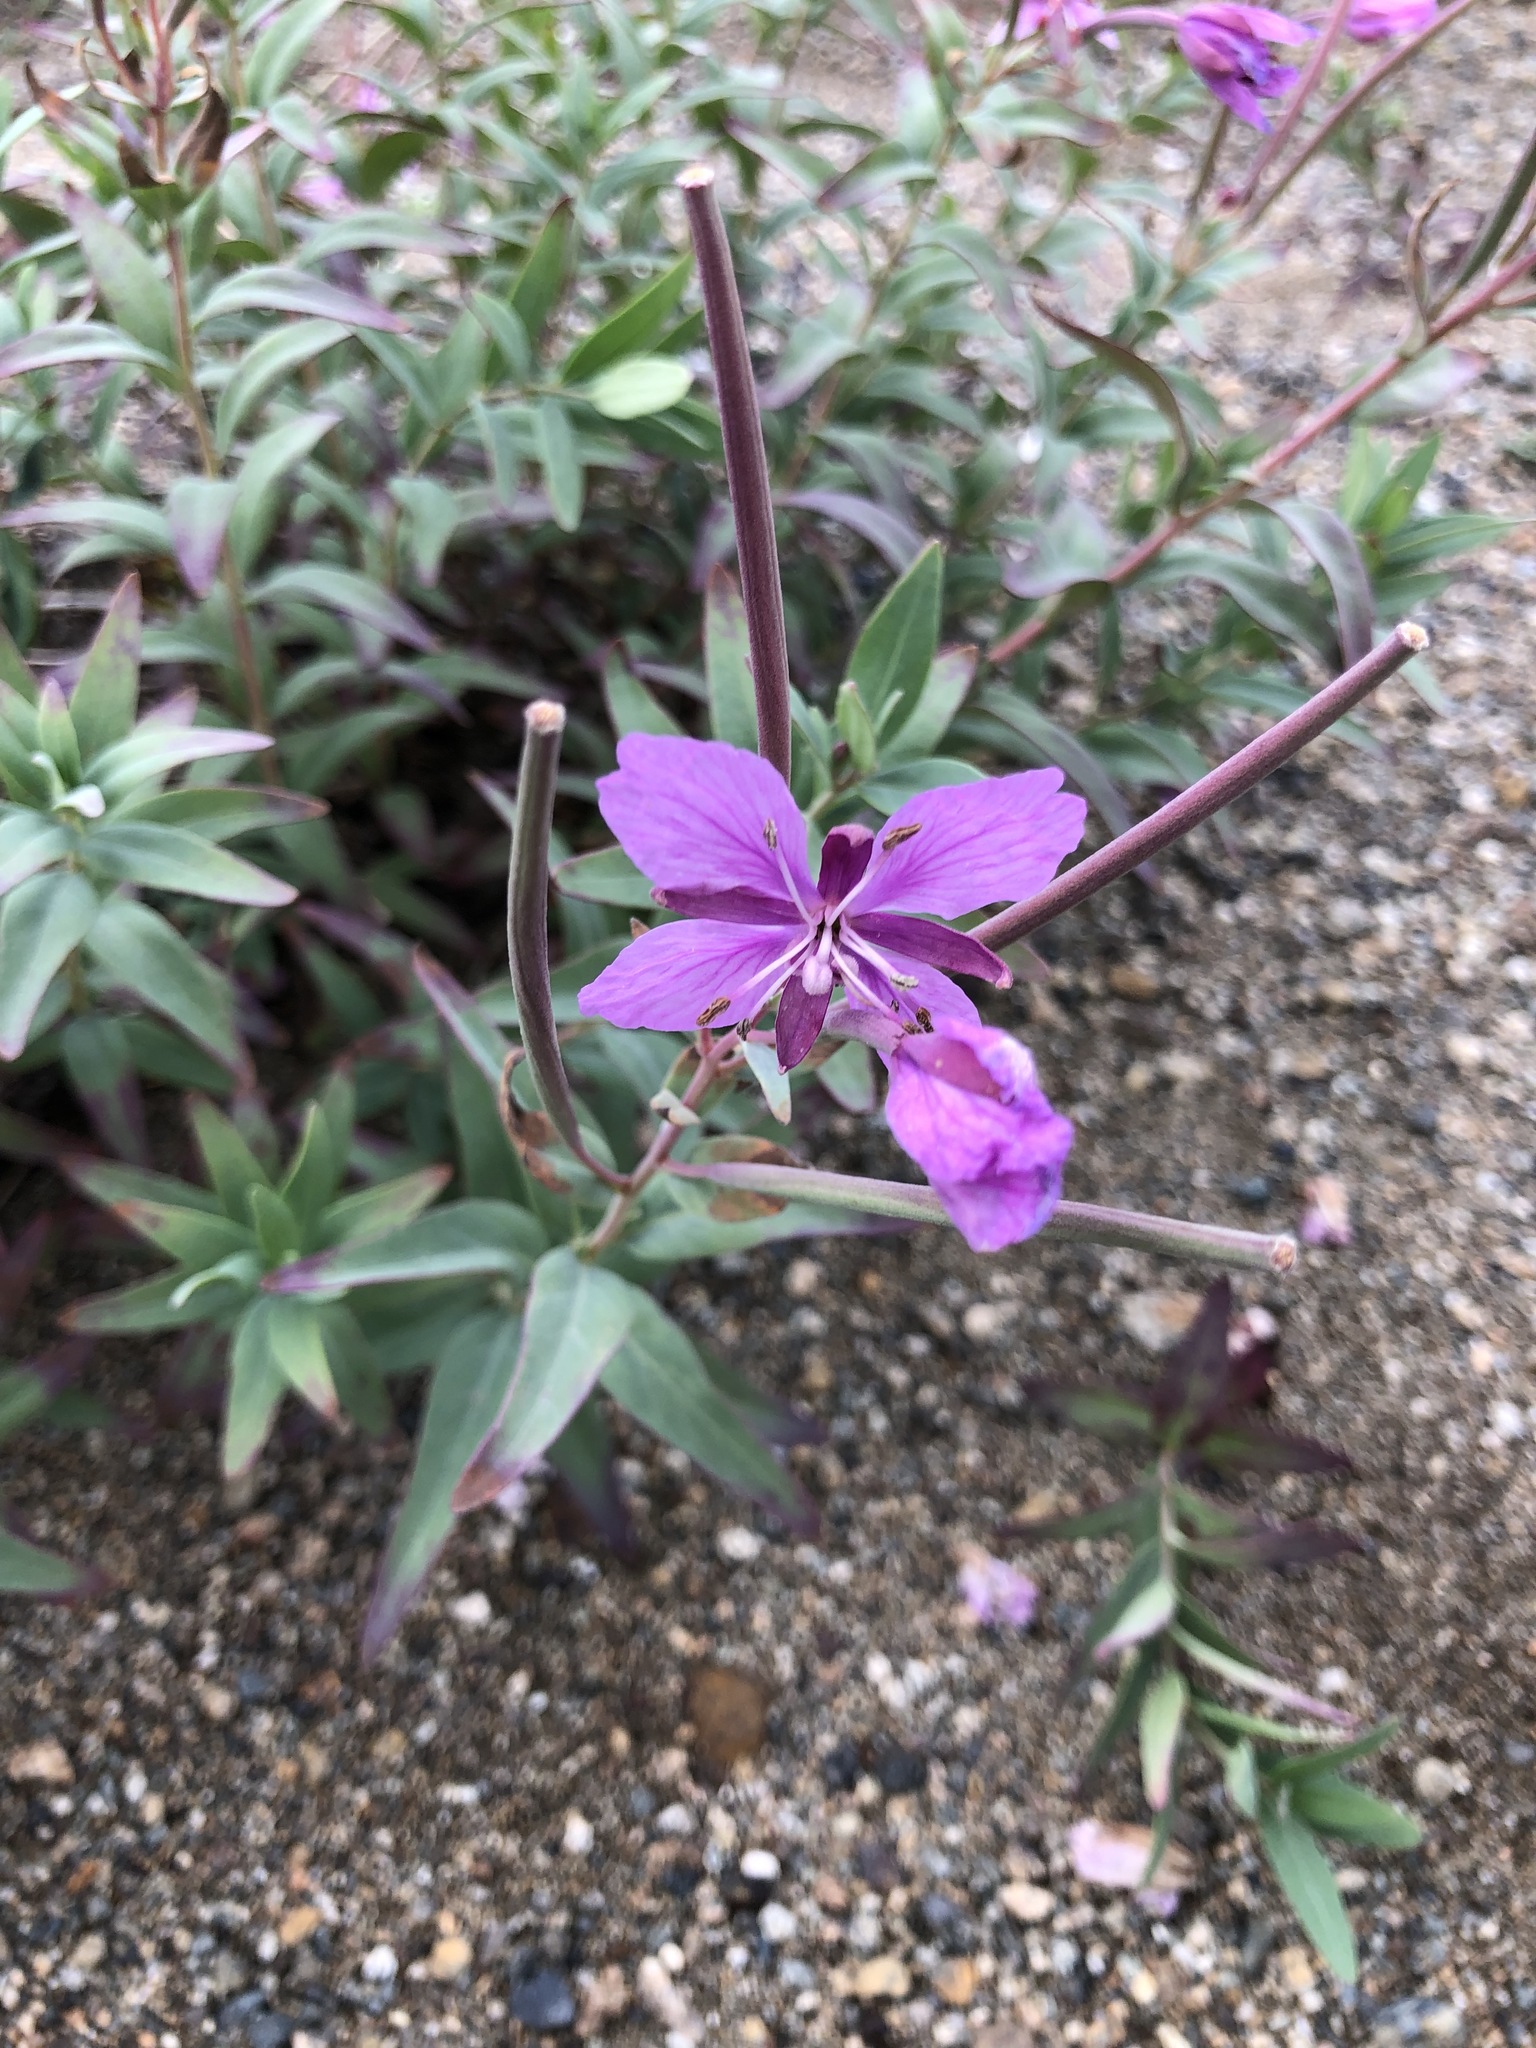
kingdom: Plantae
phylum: Tracheophyta
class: Magnoliopsida
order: Myrtales
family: Onagraceae
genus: Chamaenerion
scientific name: Chamaenerion latifolium
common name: Dwarf fireweed
